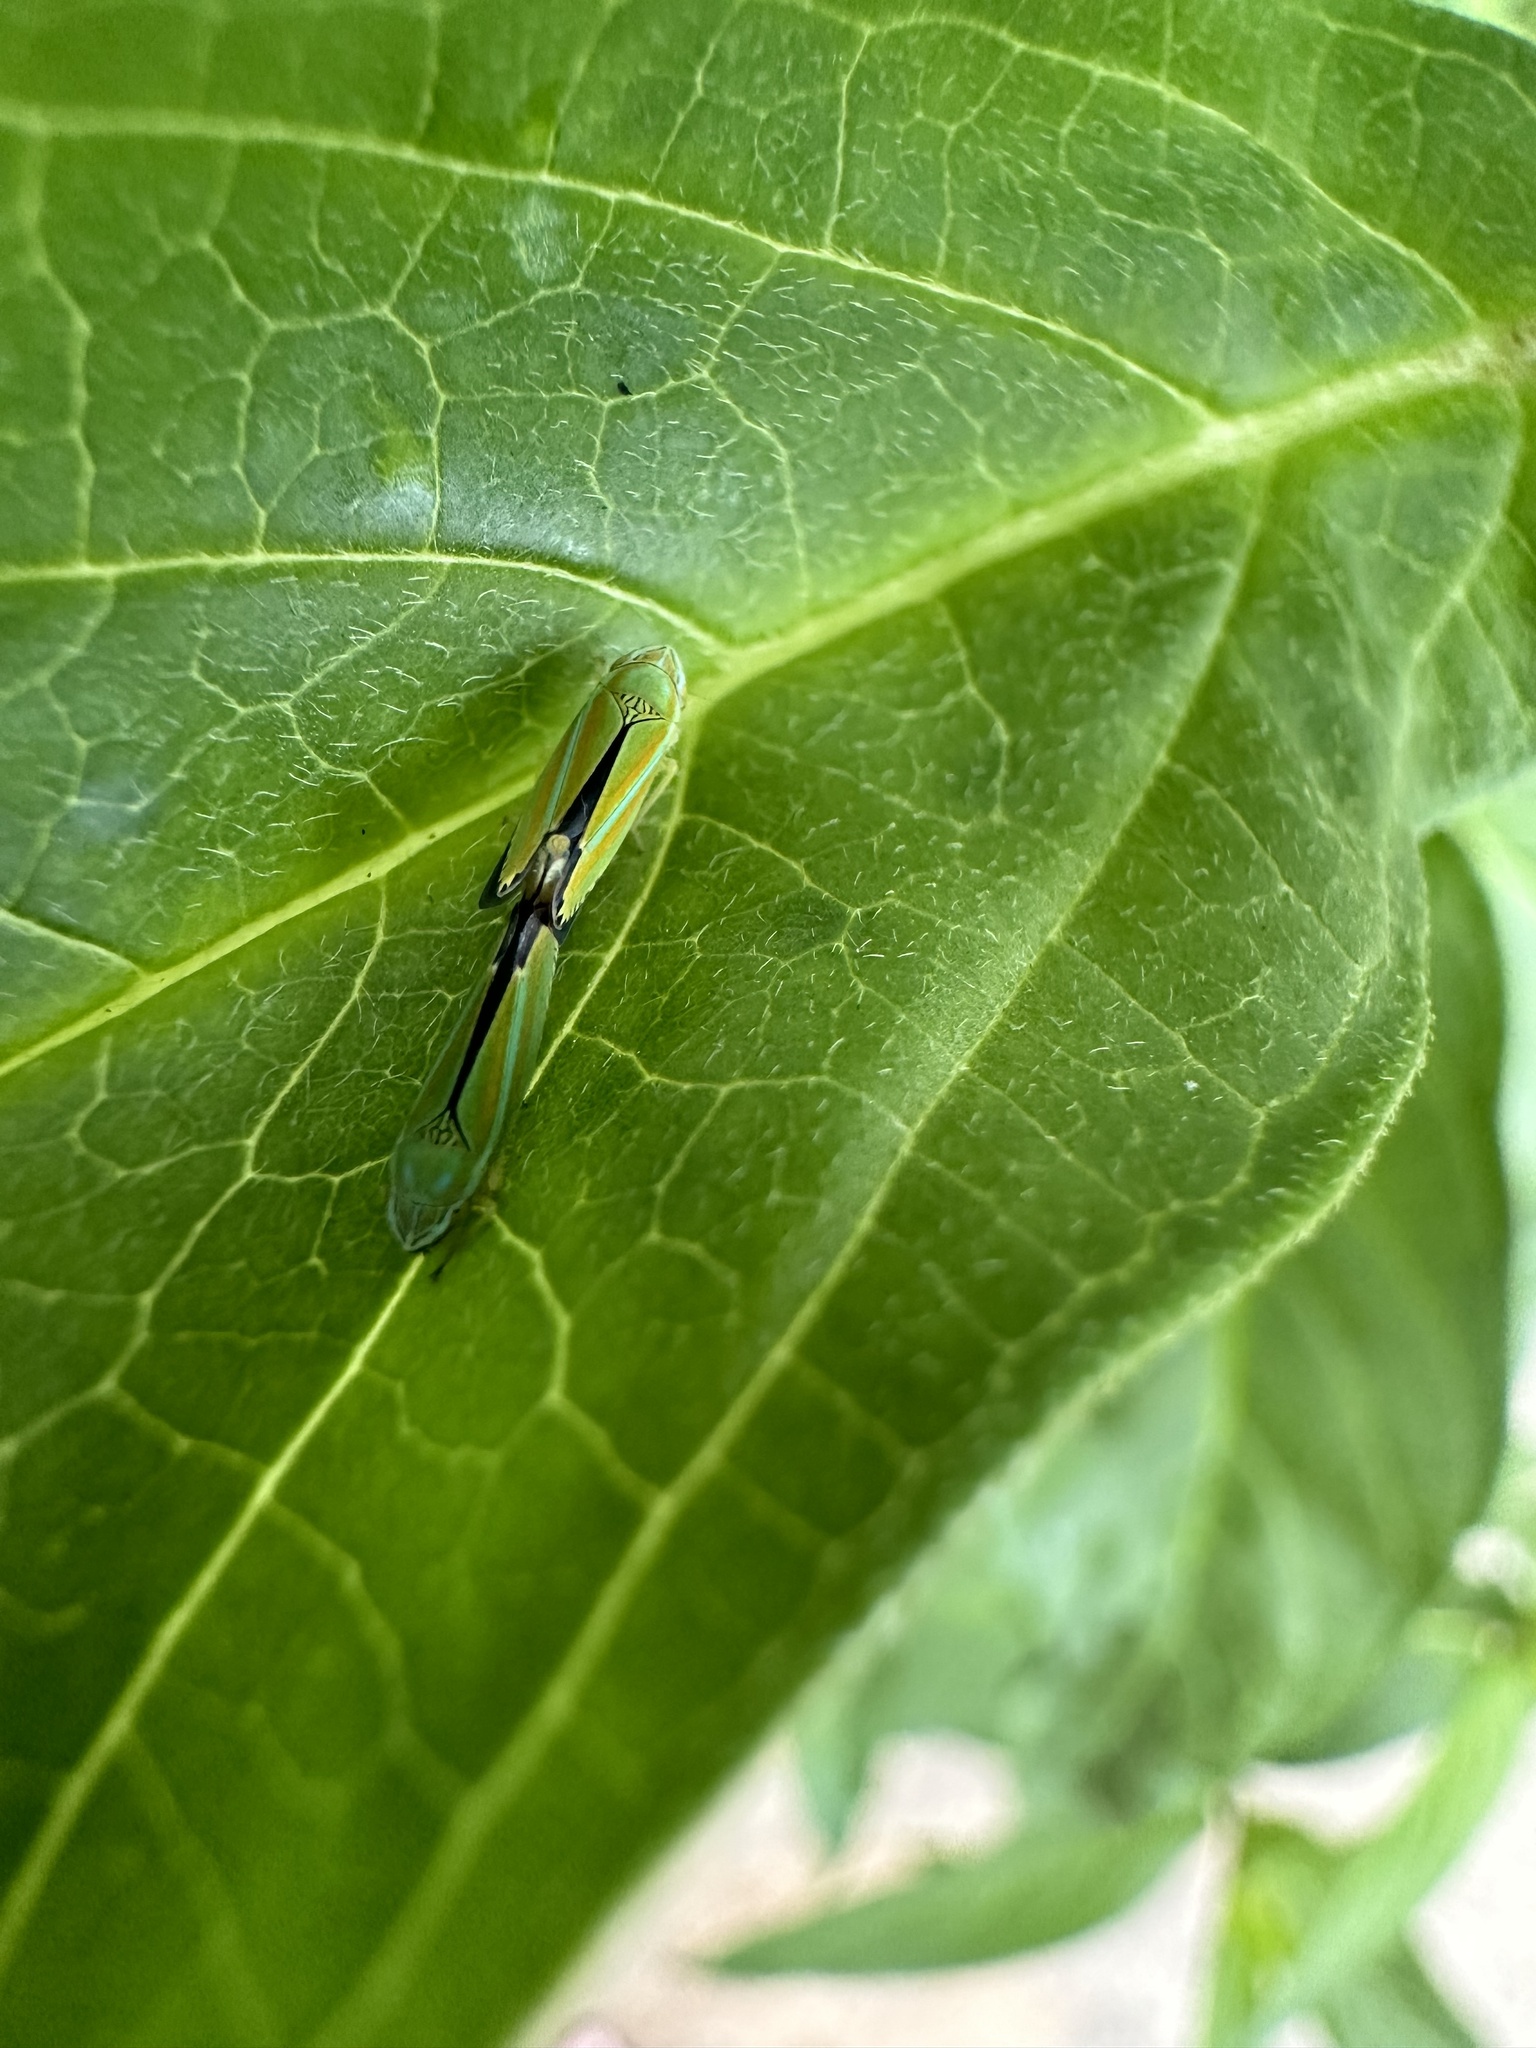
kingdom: Animalia
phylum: Arthropoda
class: Insecta
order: Hemiptera
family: Cicadellidae
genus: Graphocephala
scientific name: Graphocephala versuta
